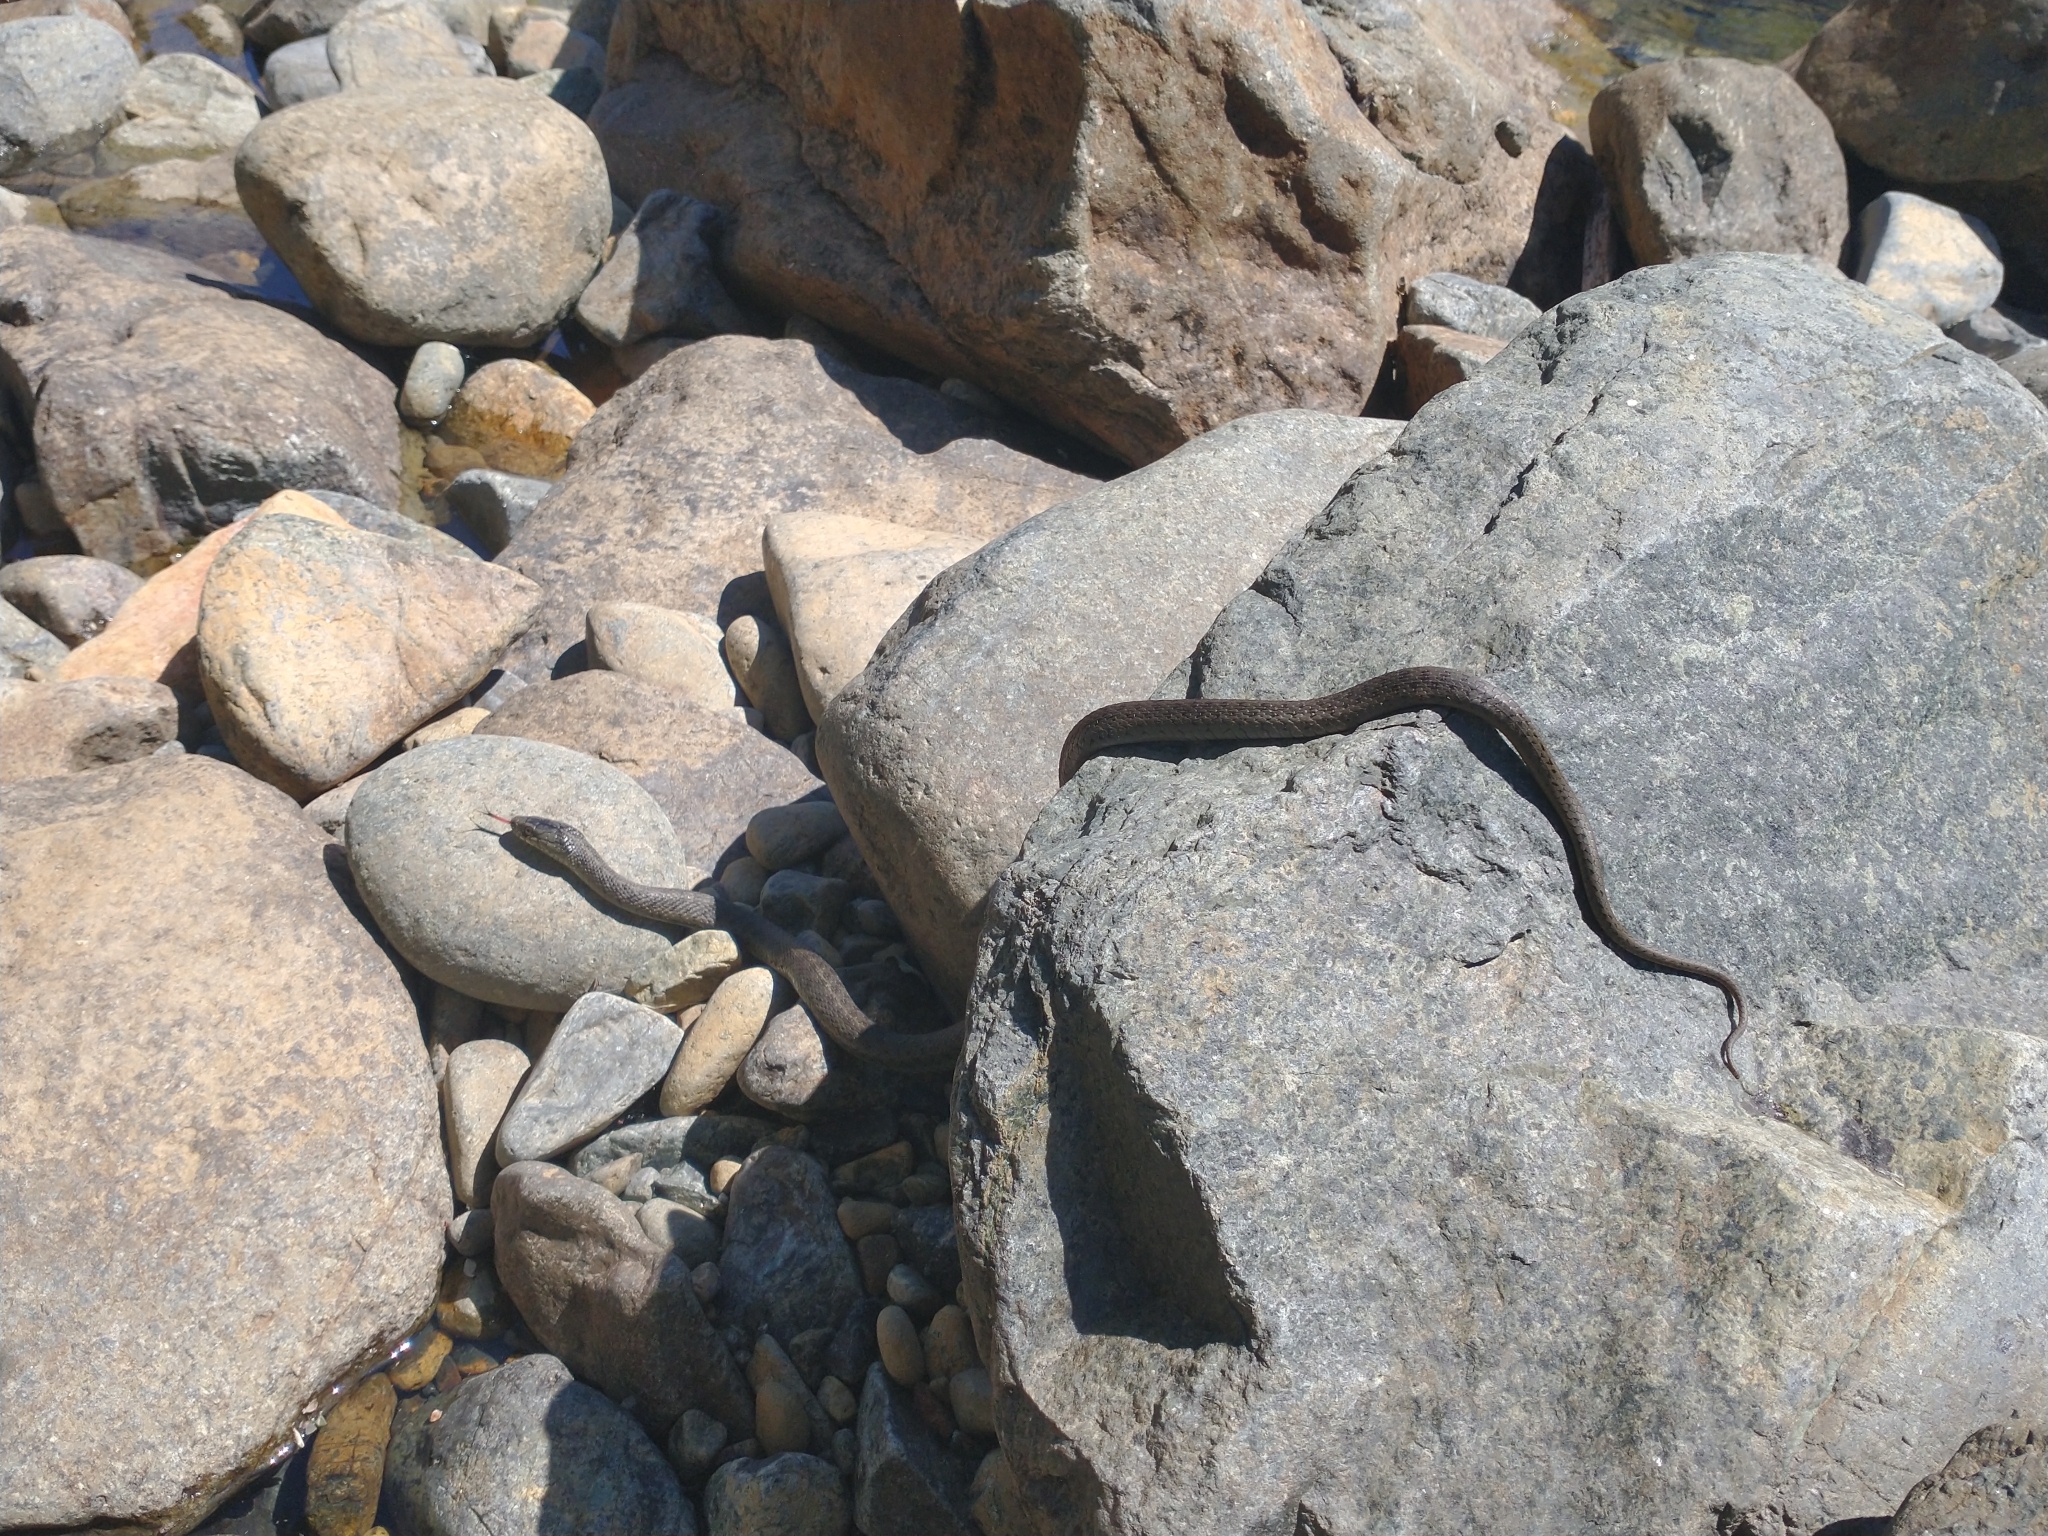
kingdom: Animalia
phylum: Chordata
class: Squamata
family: Colubridae
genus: Thamnophis
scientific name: Thamnophis atratus
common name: Pacific coast aquatic garter snake
